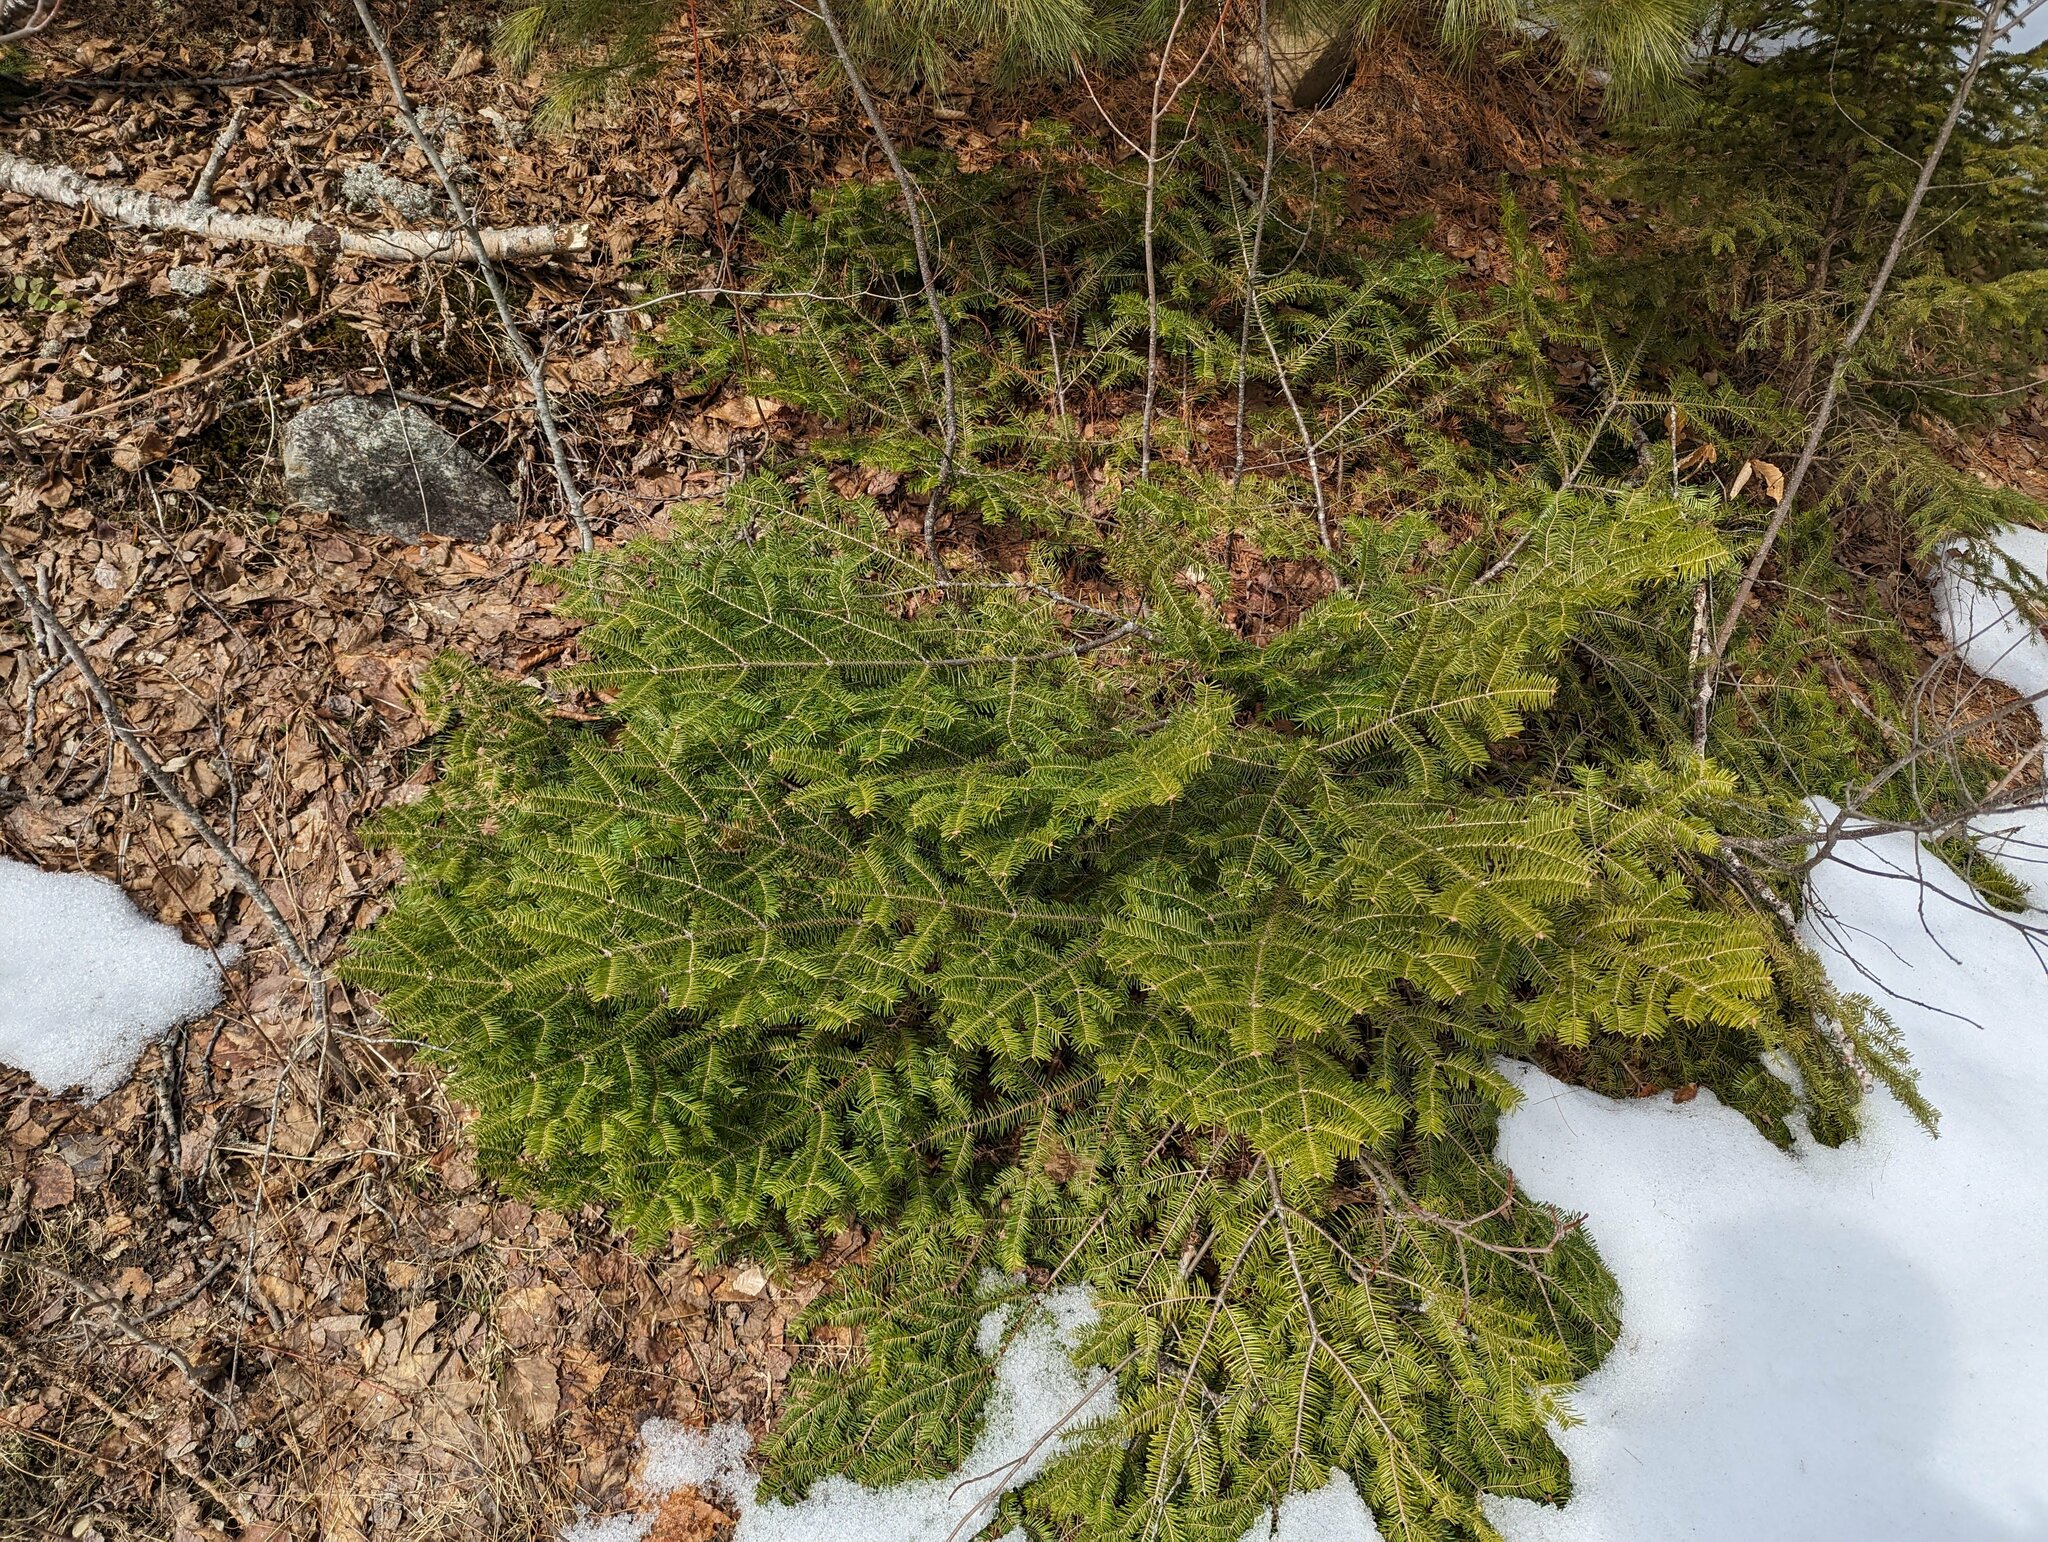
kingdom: Plantae
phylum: Tracheophyta
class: Pinopsida
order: Pinales
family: Pinaceae
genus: Abies
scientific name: Abies balsamea
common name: Balsam fir
